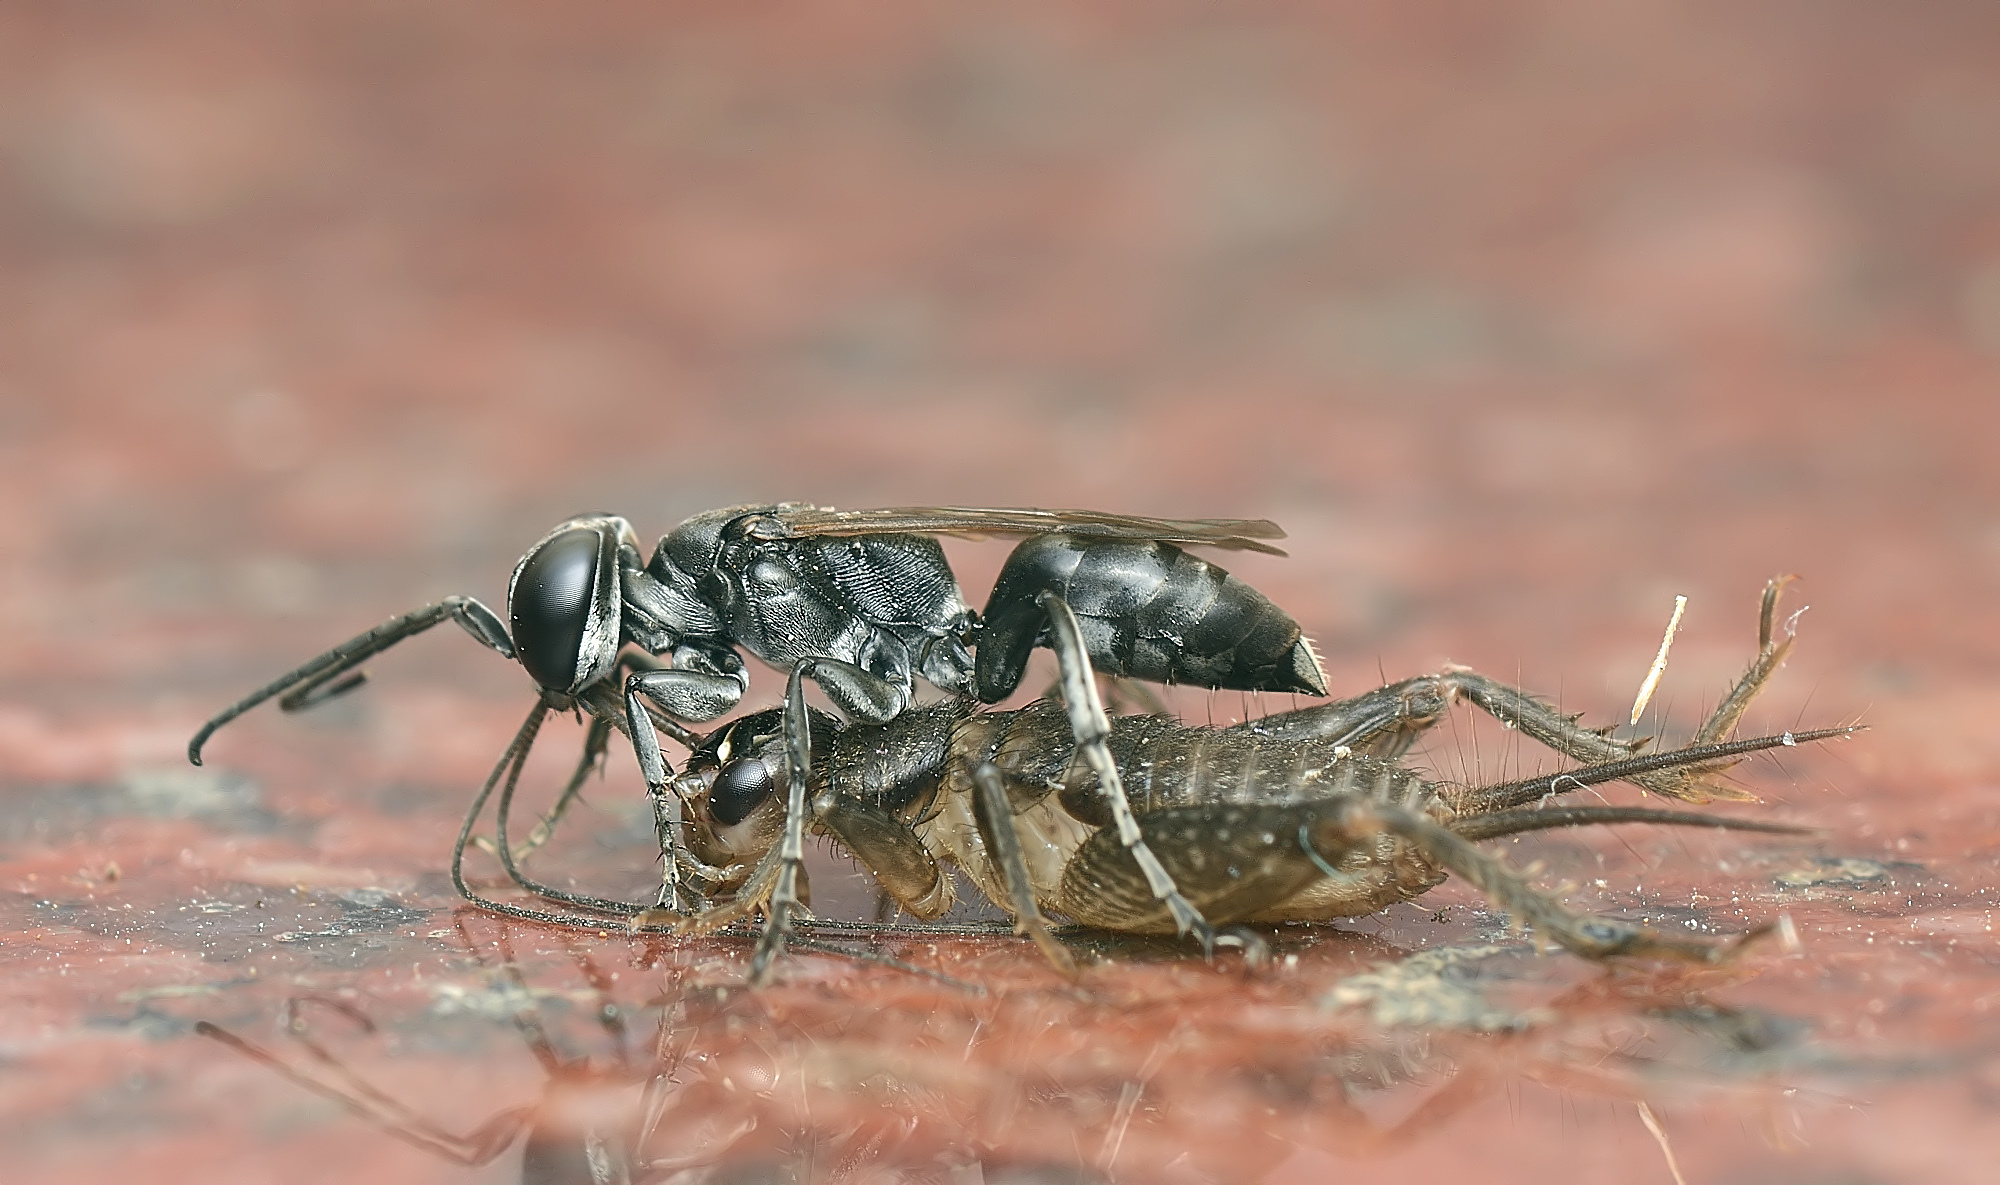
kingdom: Animalia
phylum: Arthropoda
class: Insecta
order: Hymenoptera
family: Crabronidae
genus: Liris
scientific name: Liris
